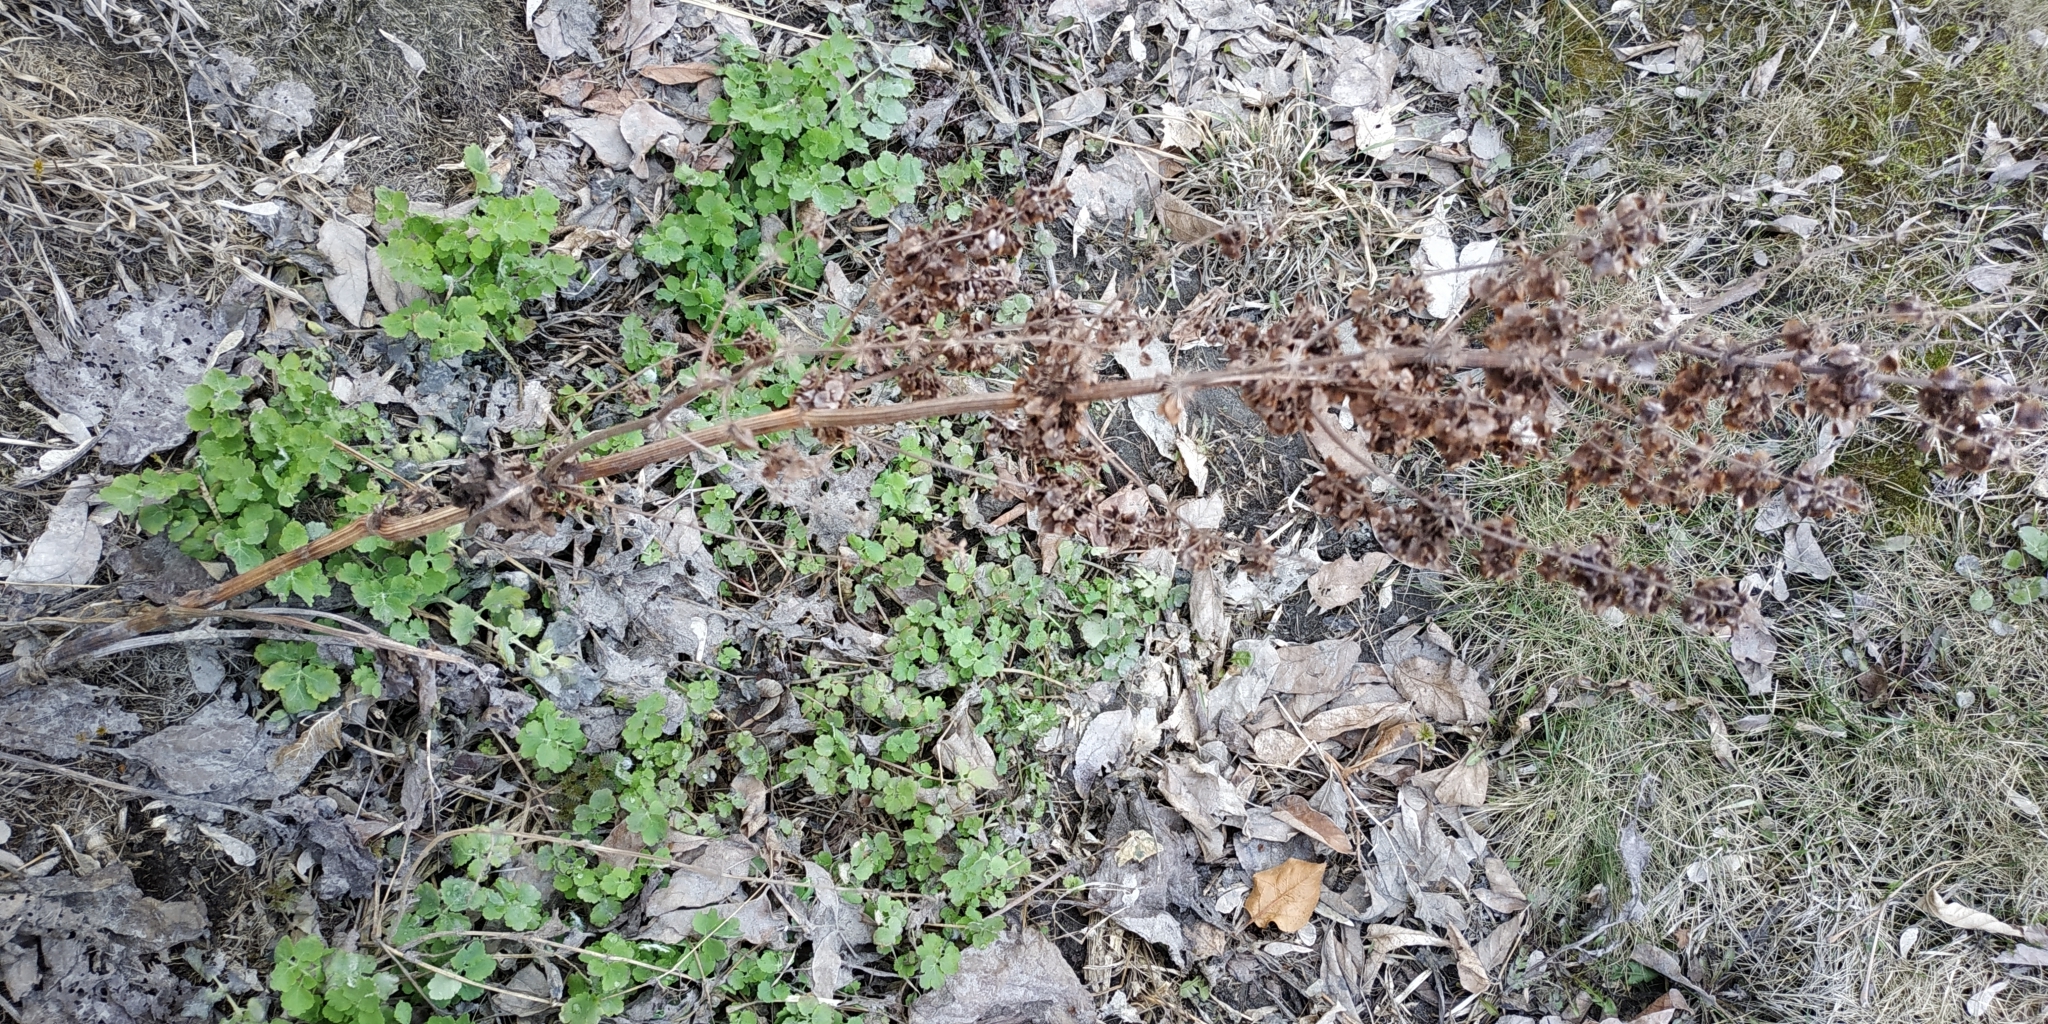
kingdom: Plantae
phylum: Tracheophyta
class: Magnoliopsida
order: Caryophyllales
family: Polygonaceae
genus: Rumex
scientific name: Rumex confertus
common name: Russian dock
